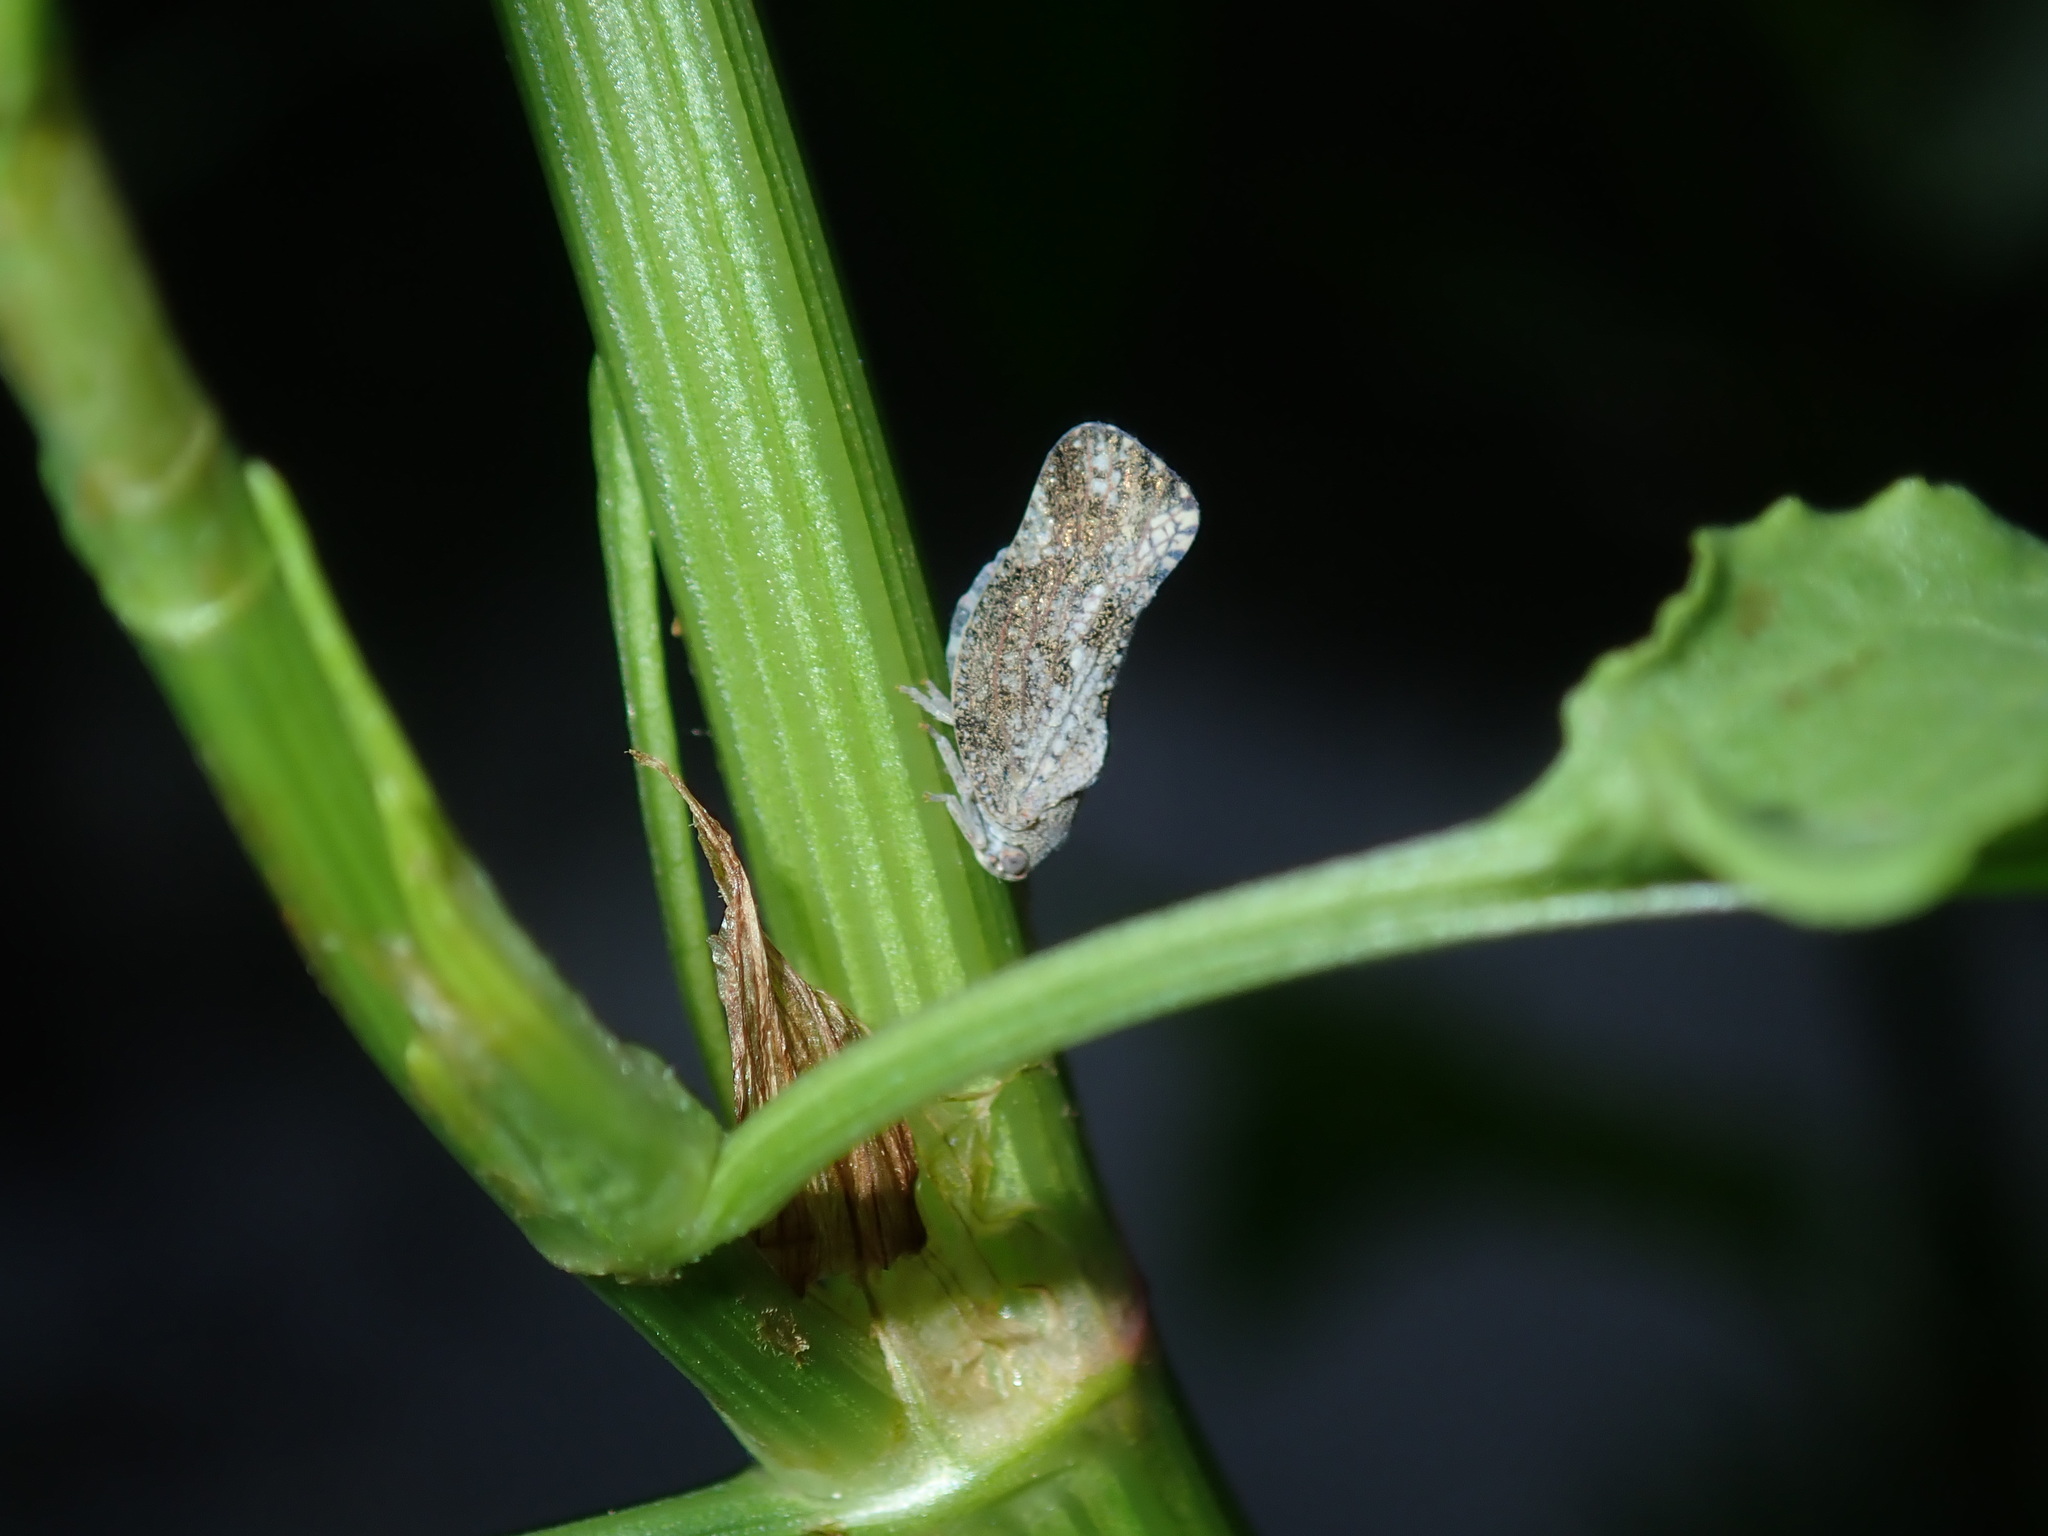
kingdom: Animalia
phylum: Arthropoda
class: Insecta
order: Hemiptera
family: Flatidae
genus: Massila
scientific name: Massila
